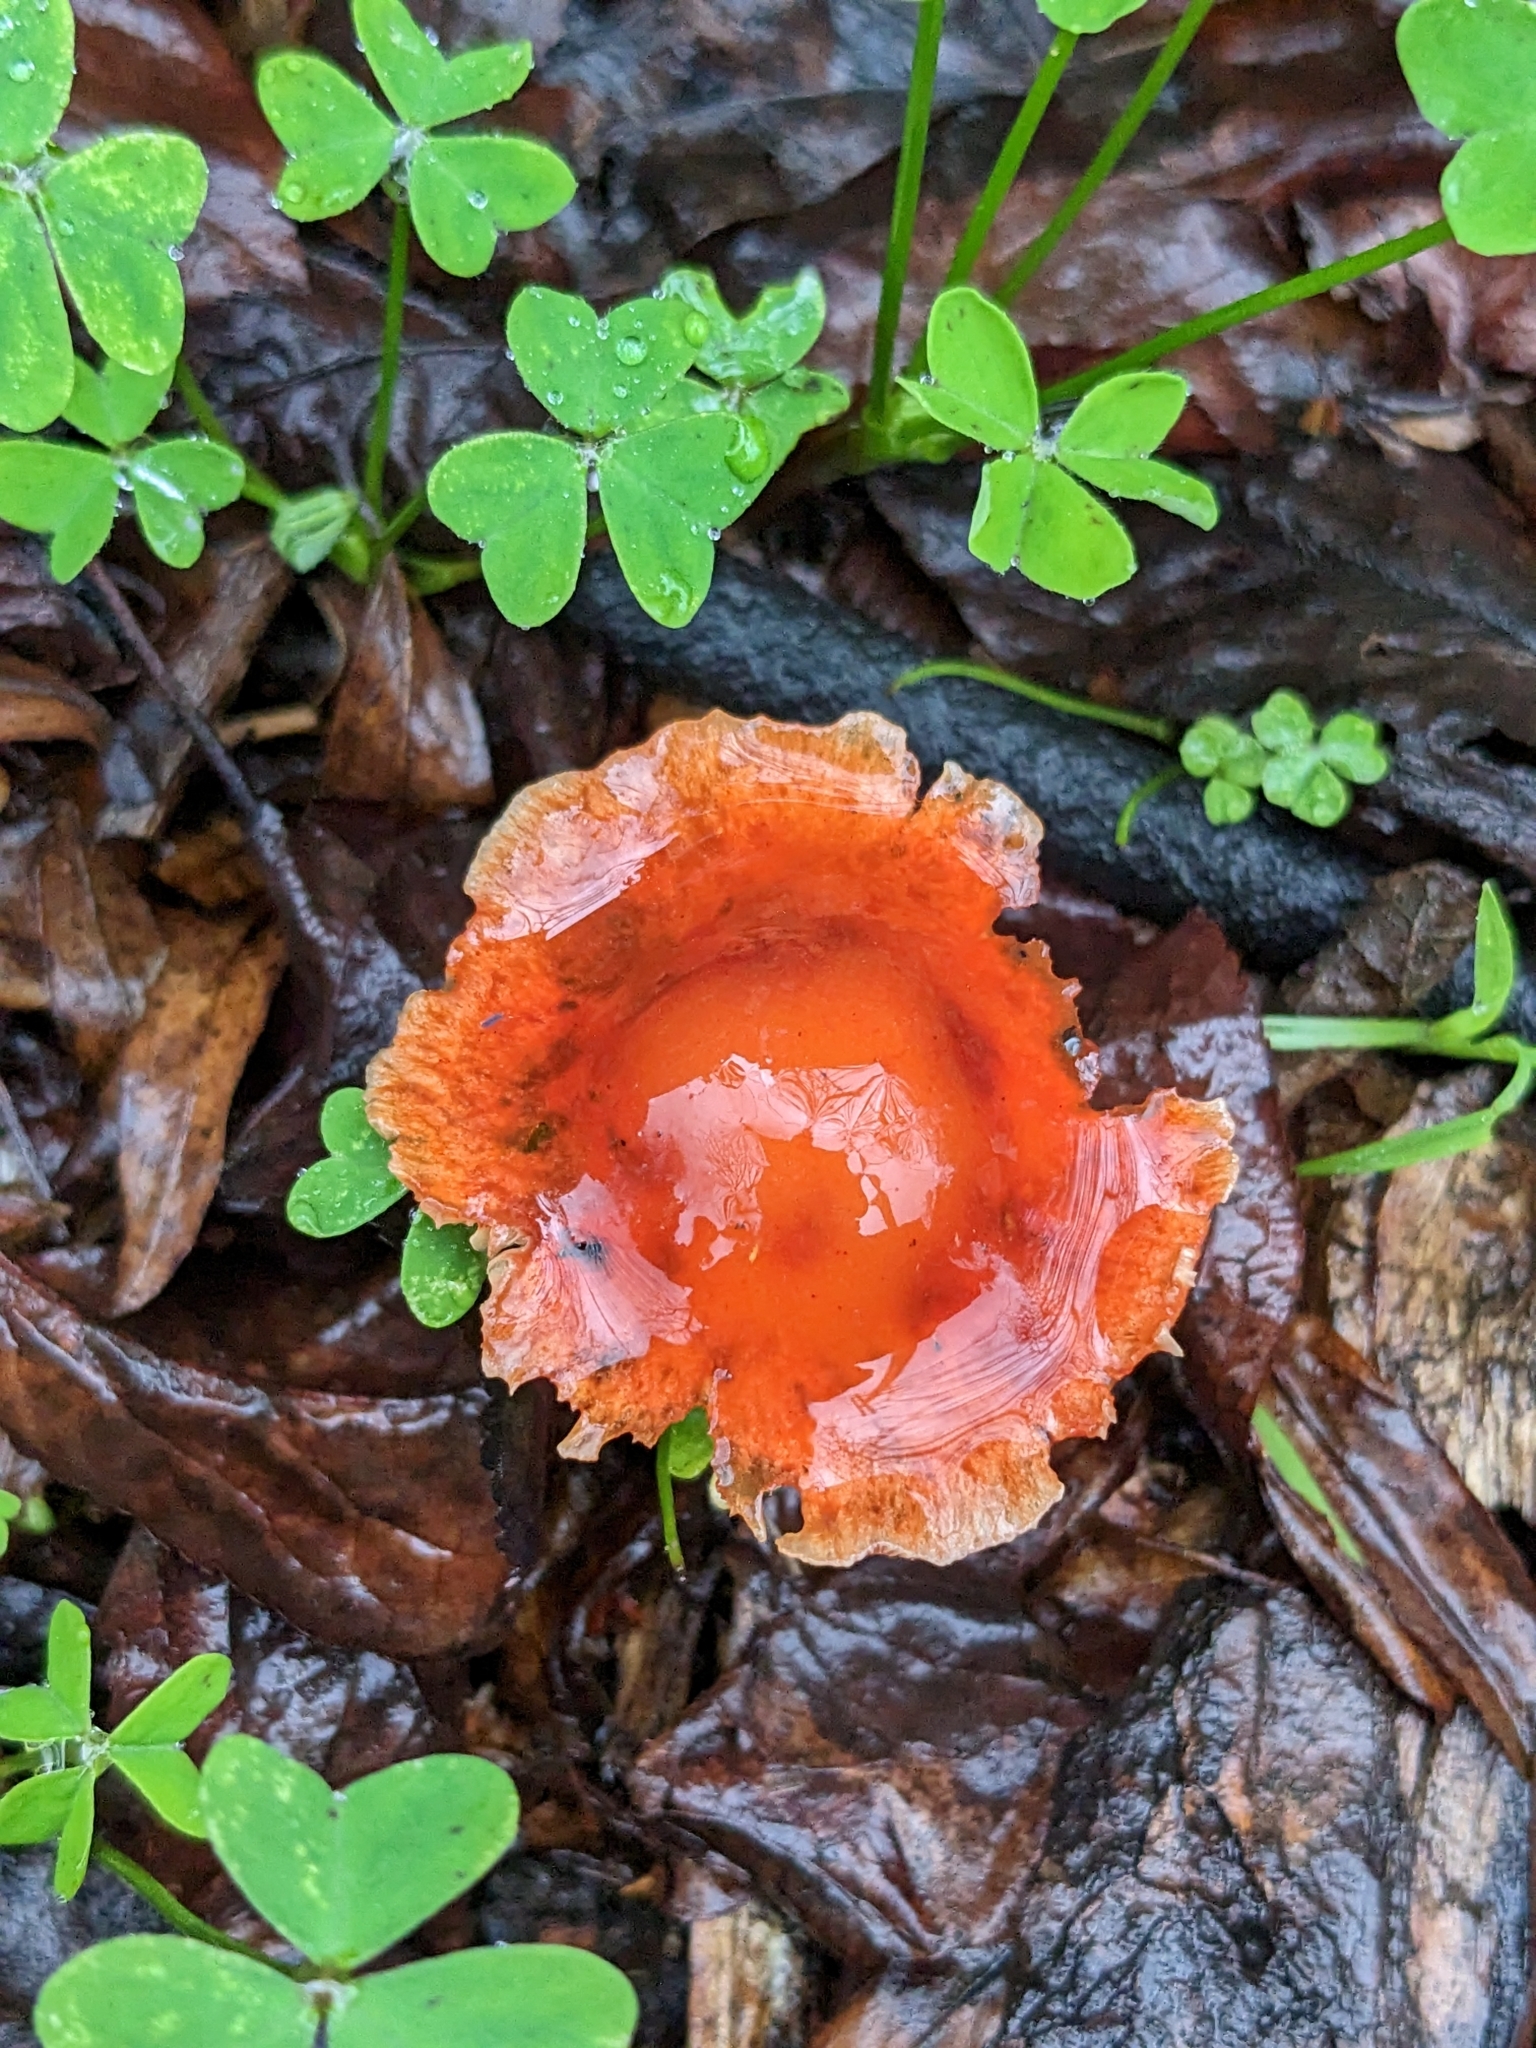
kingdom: Fungi
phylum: Basidiomycota
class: Agaricomycetes
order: Agaricales
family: Strophariaceae
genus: Leratiomyces
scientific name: Leratiomyces ceres
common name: Redlead roundhead
